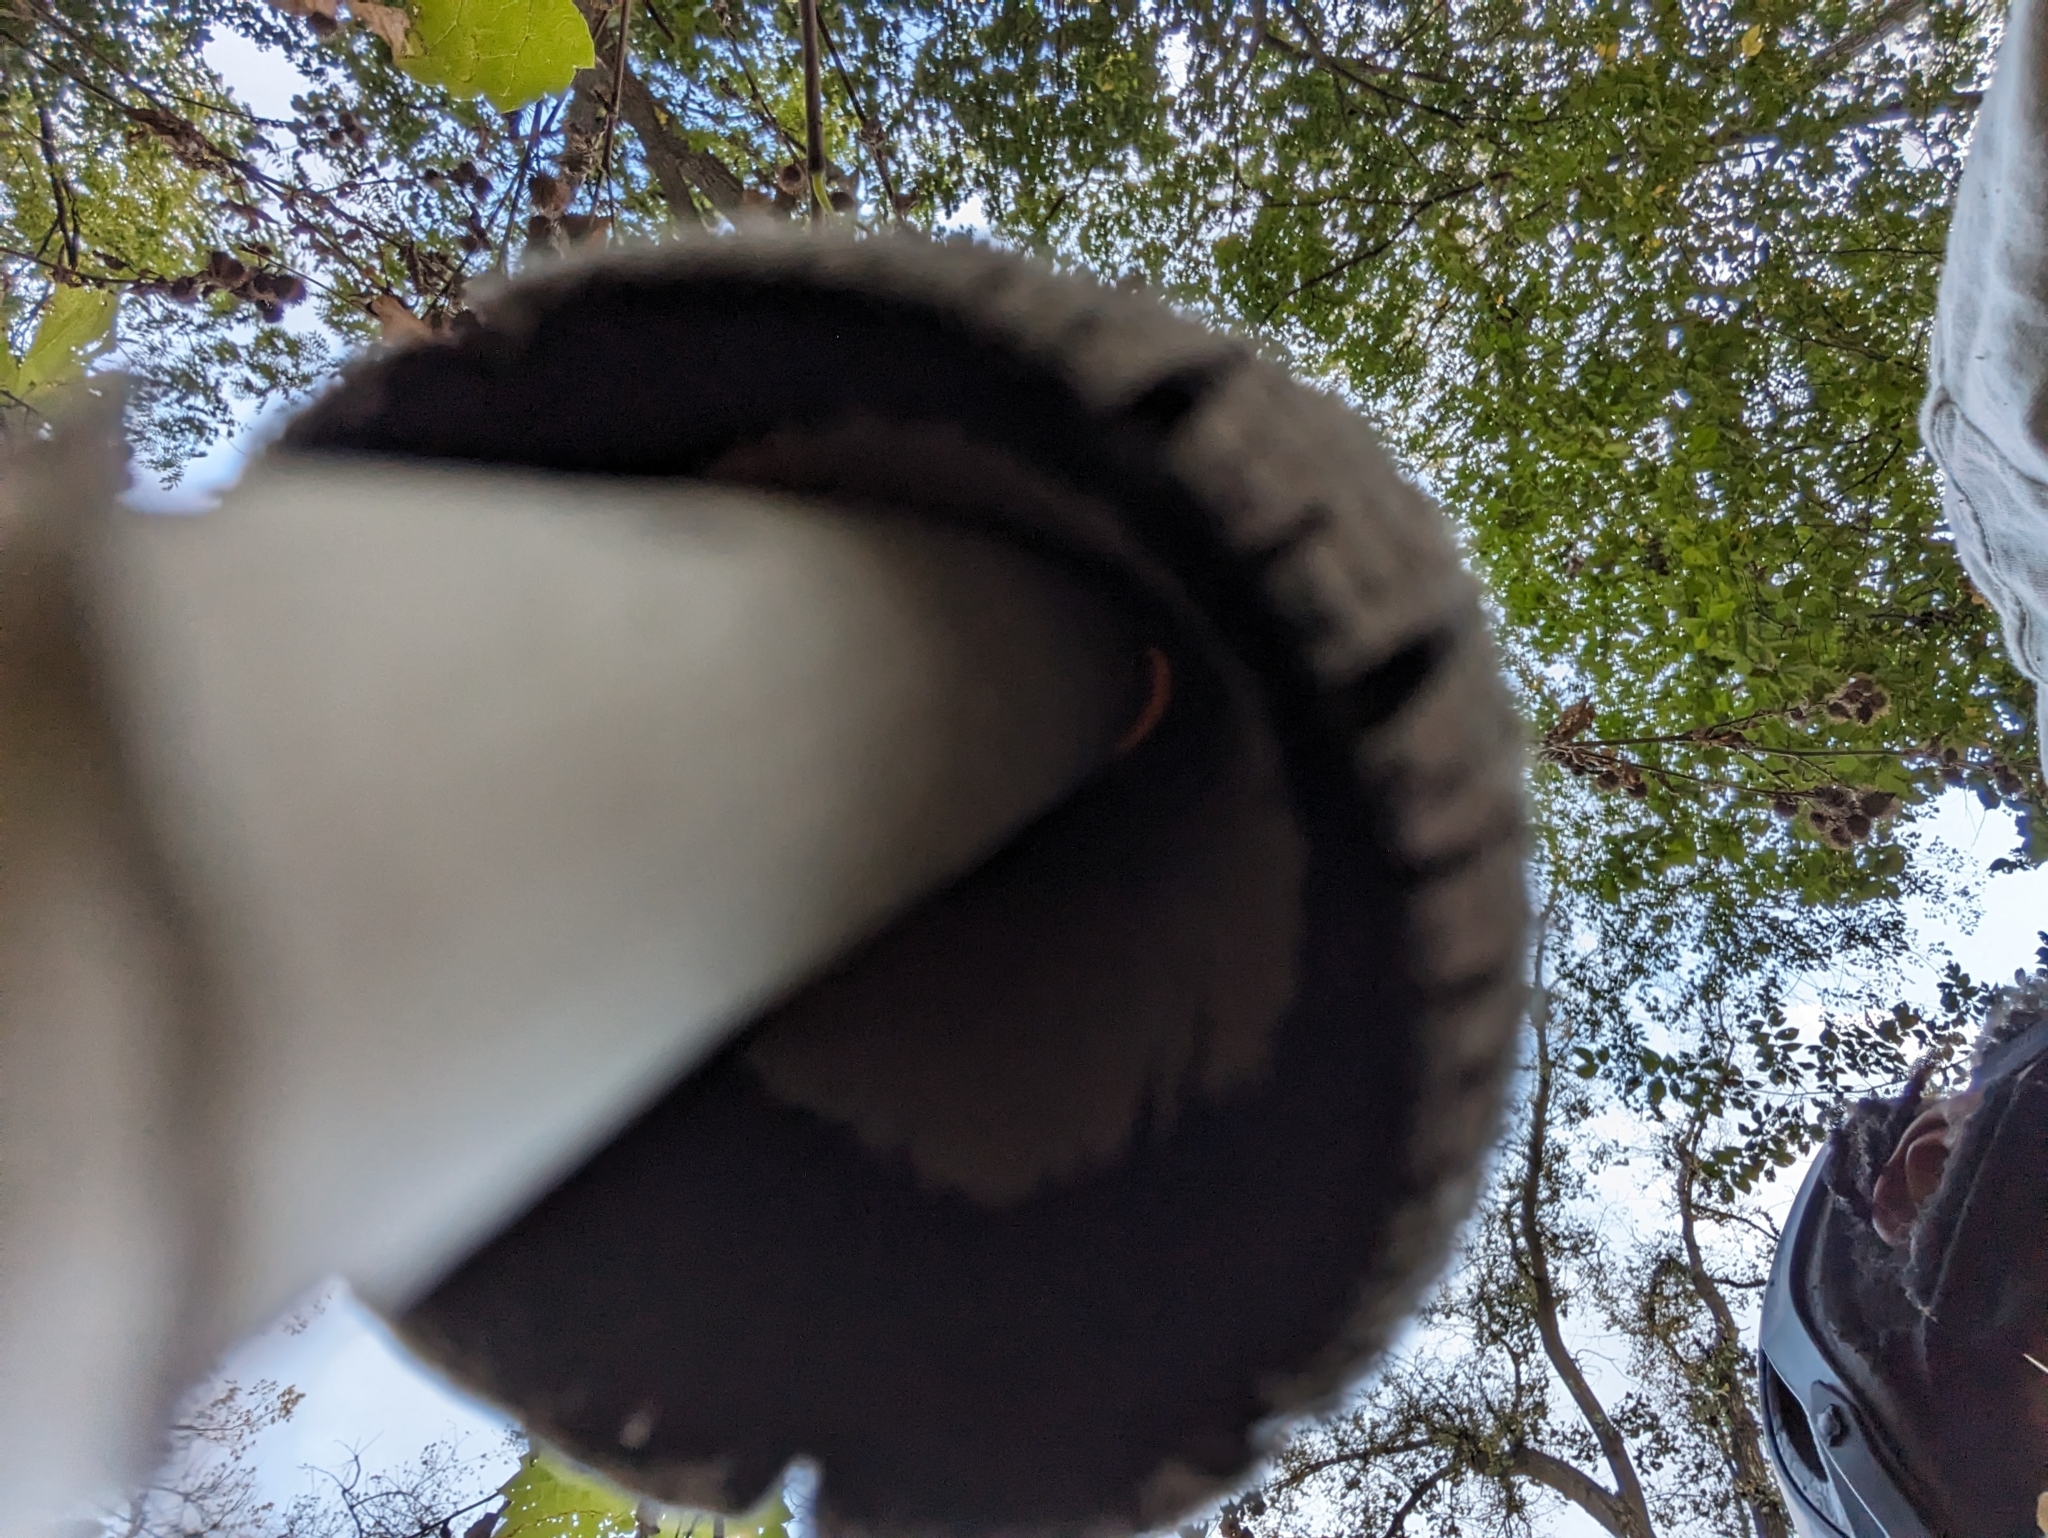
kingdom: Fungi
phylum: Basidiomycota
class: Agaricomycetes
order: Agaricales
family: Agaricaceae
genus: Coprinus
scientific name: Coprinus comatus
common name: Lawyer's wig
